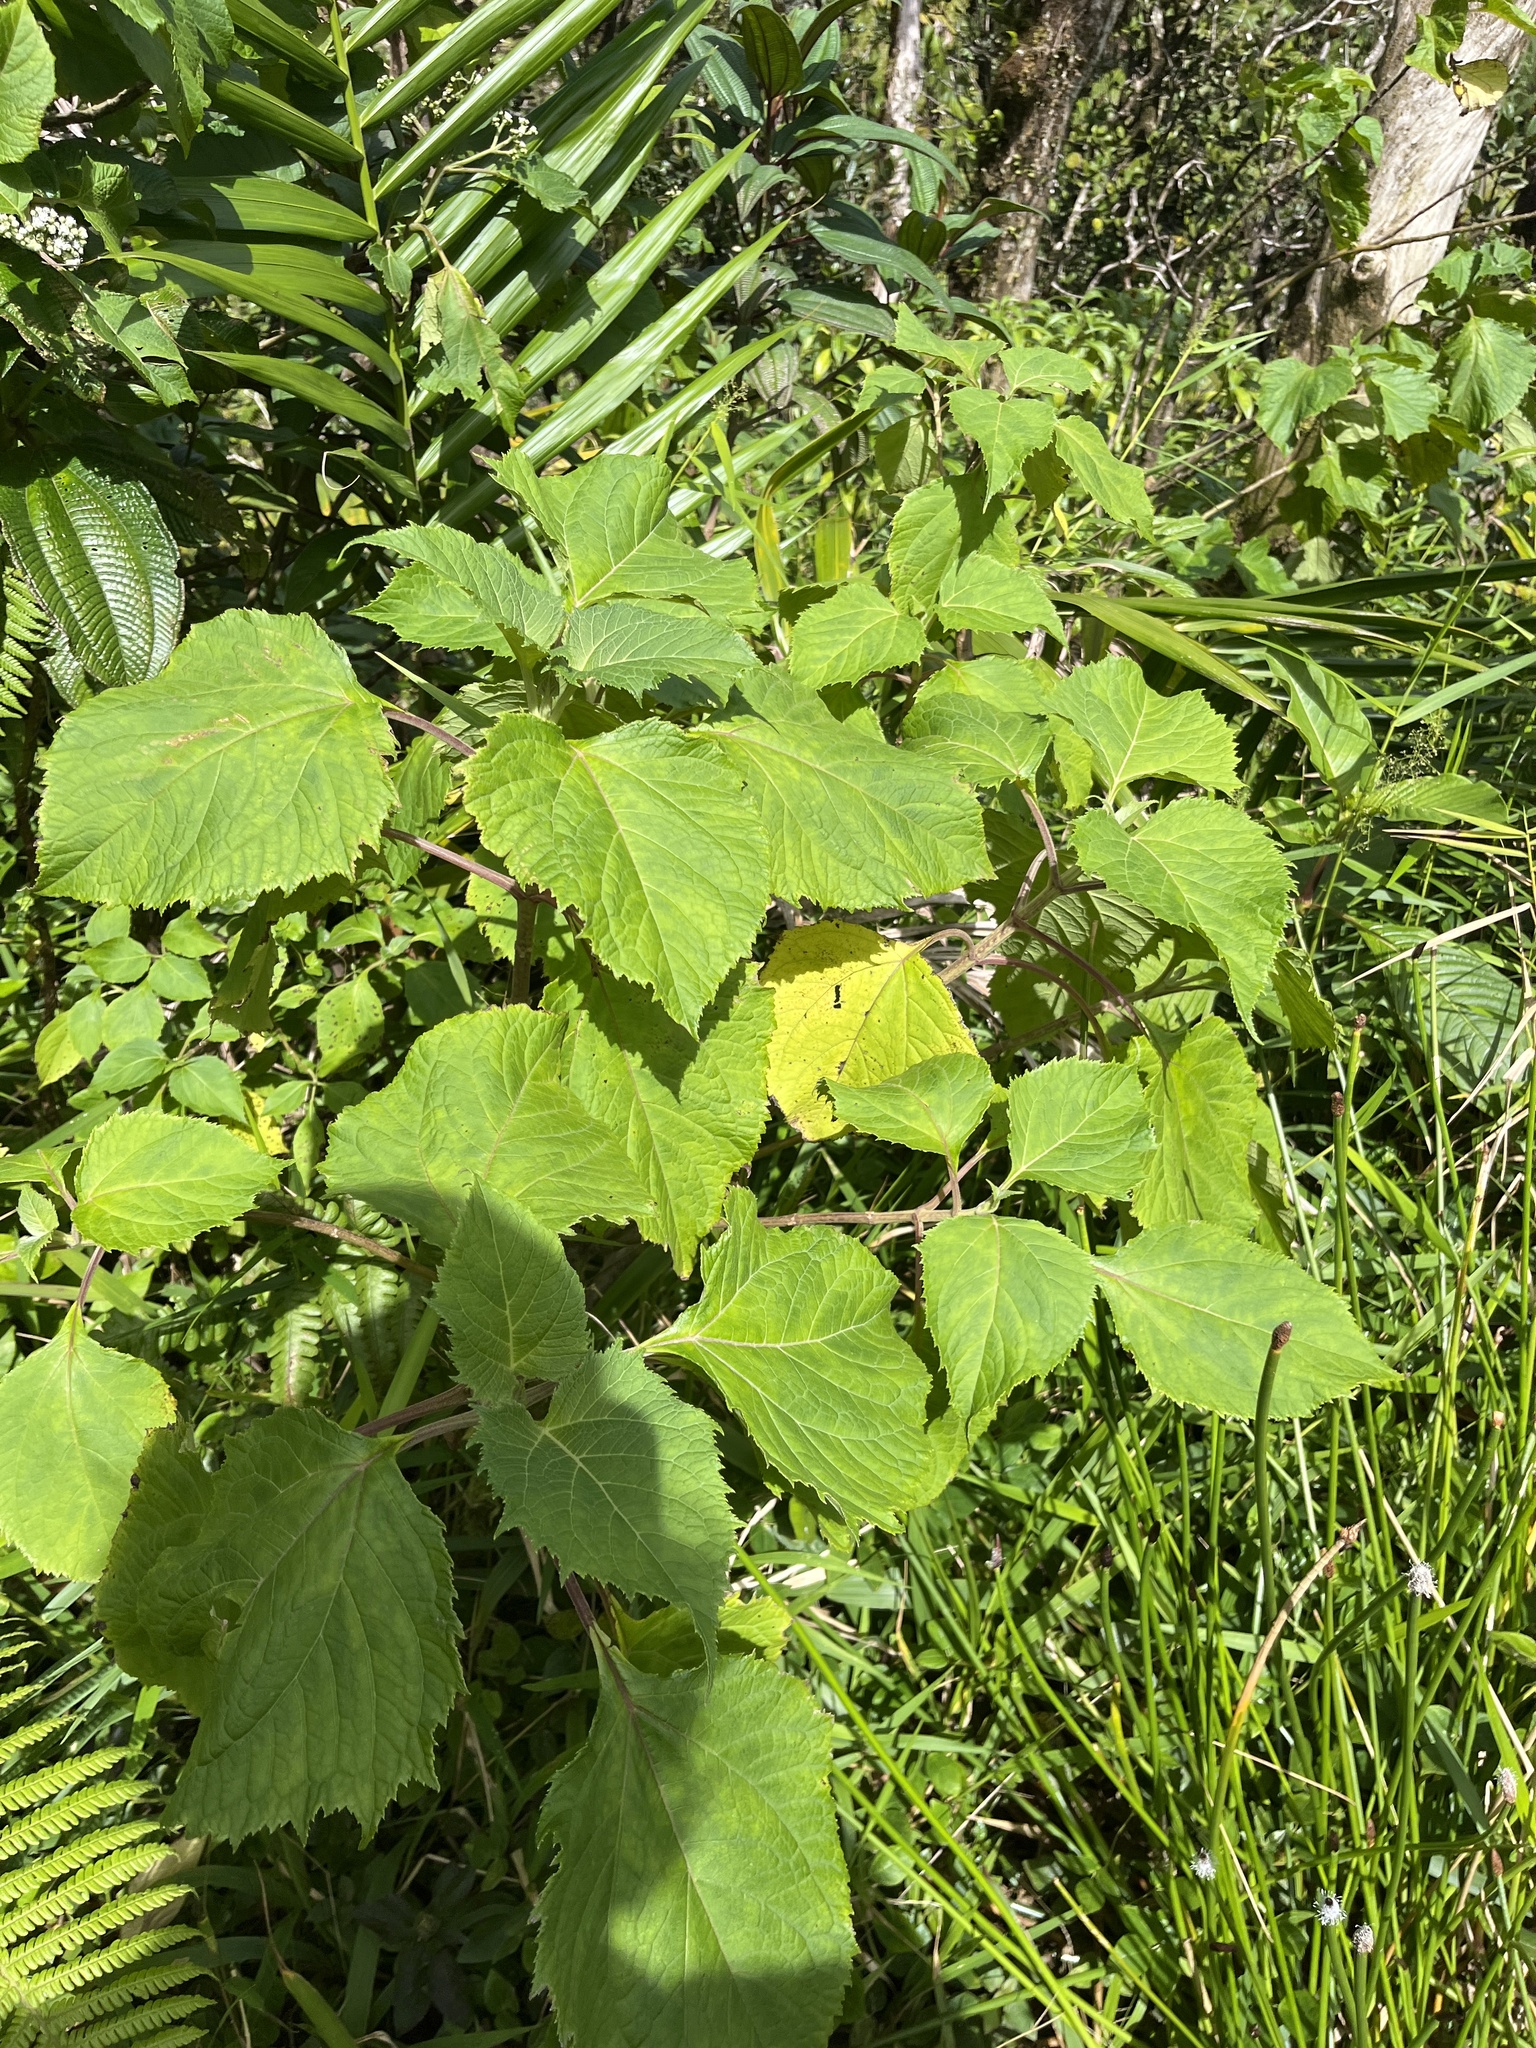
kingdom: Plantae
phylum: Tracheophyta
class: Magnoliopsida
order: Asterales
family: Asteraceae
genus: Clibadium
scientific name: Clibadium erosum
